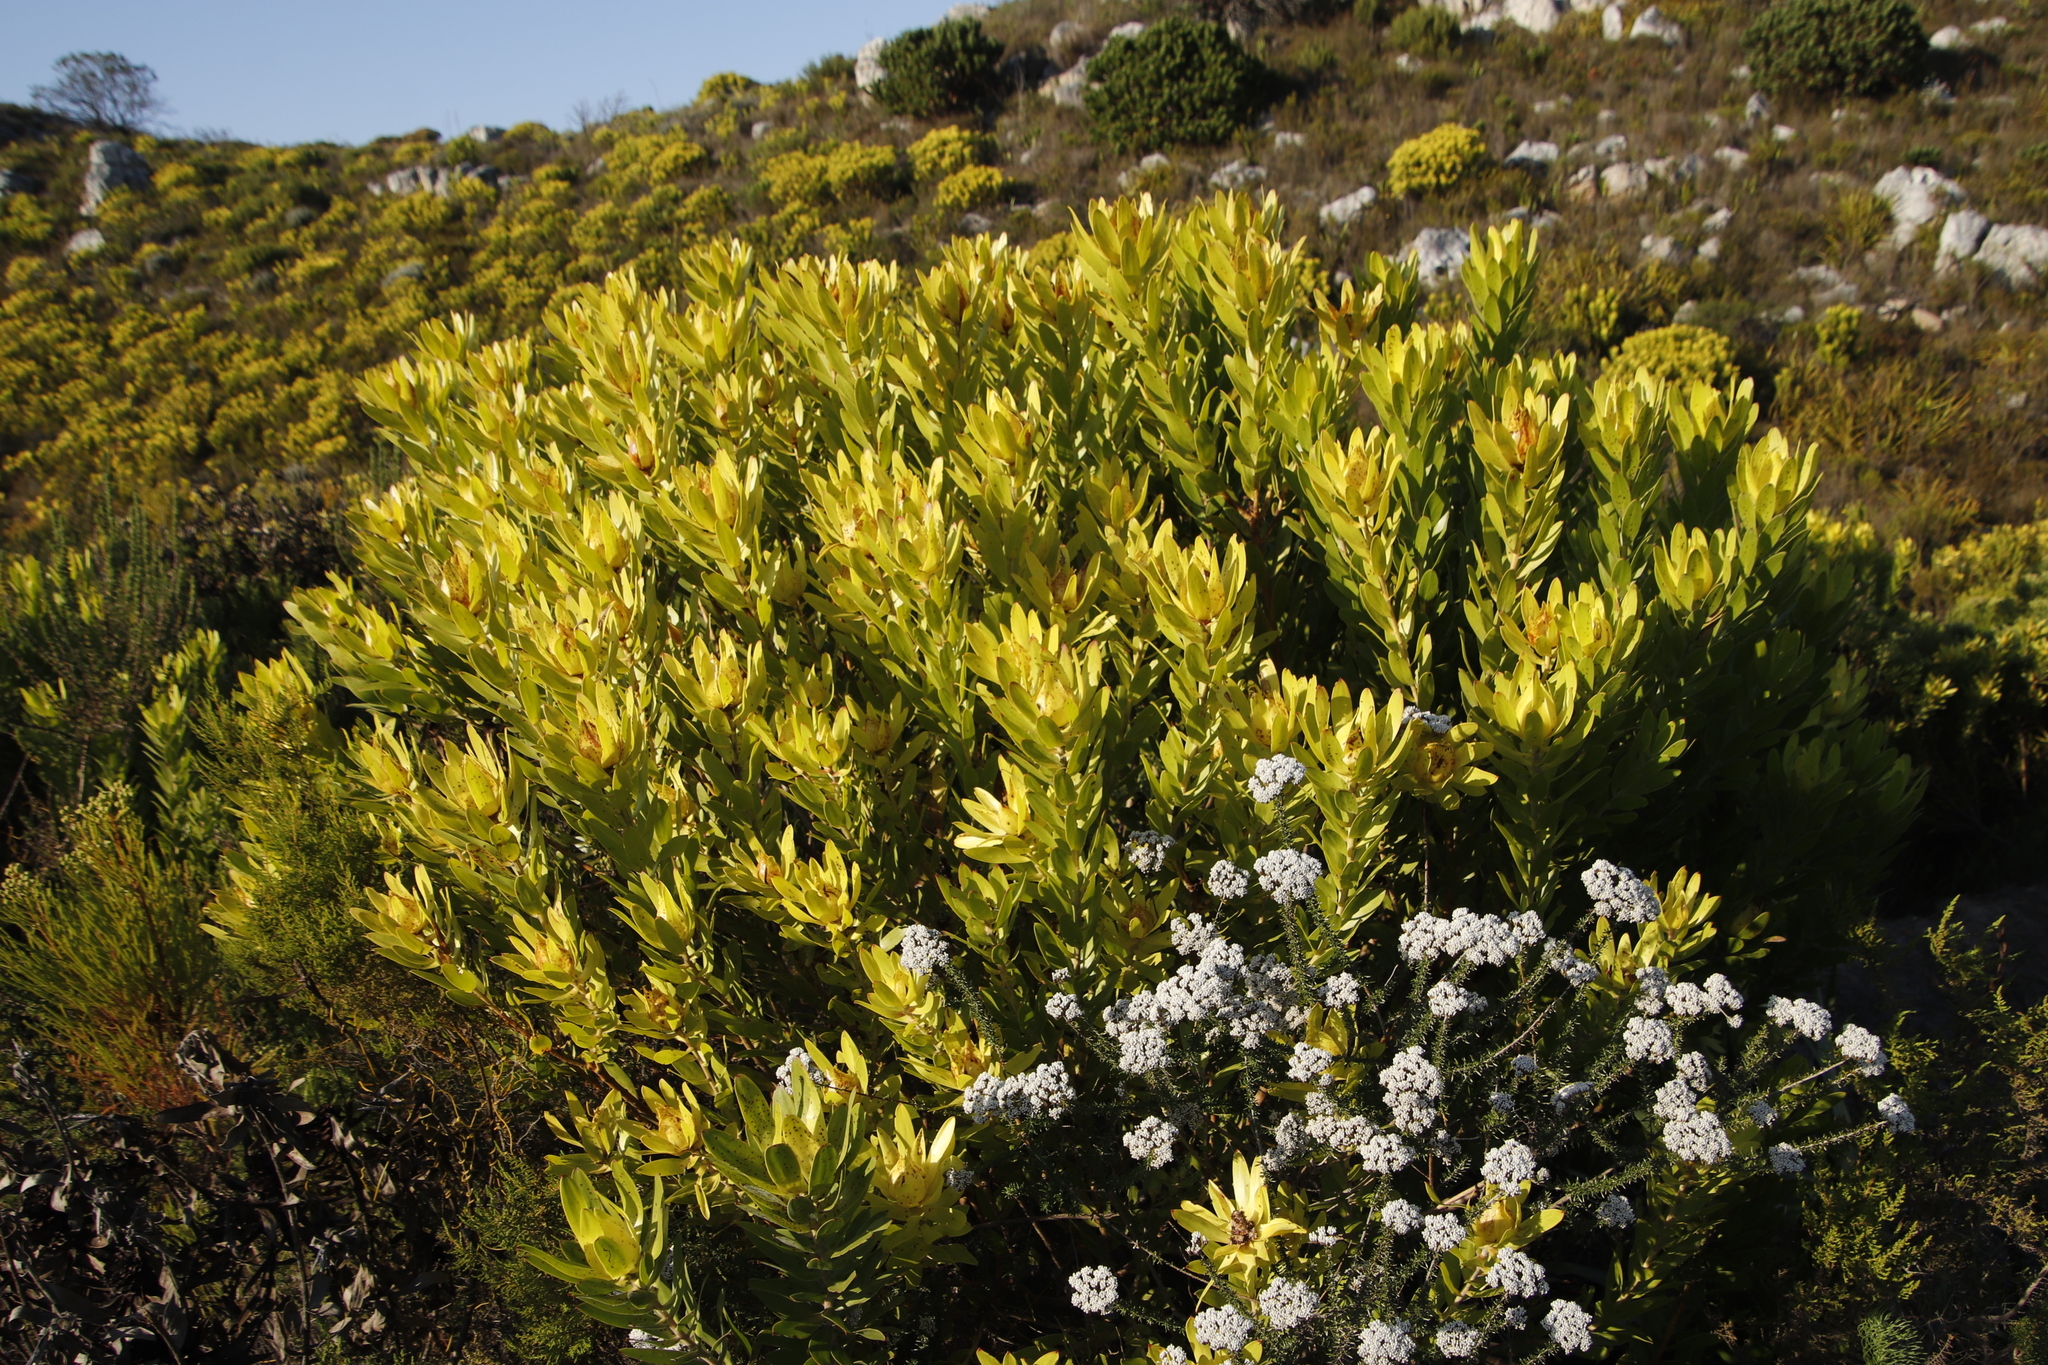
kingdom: Plantae
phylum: Tracheophyta
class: Magnoliopsida
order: Proteales
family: Proteaceae
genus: Leucadendron
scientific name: Leucadendron laureolum
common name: Golden sunshinebush
